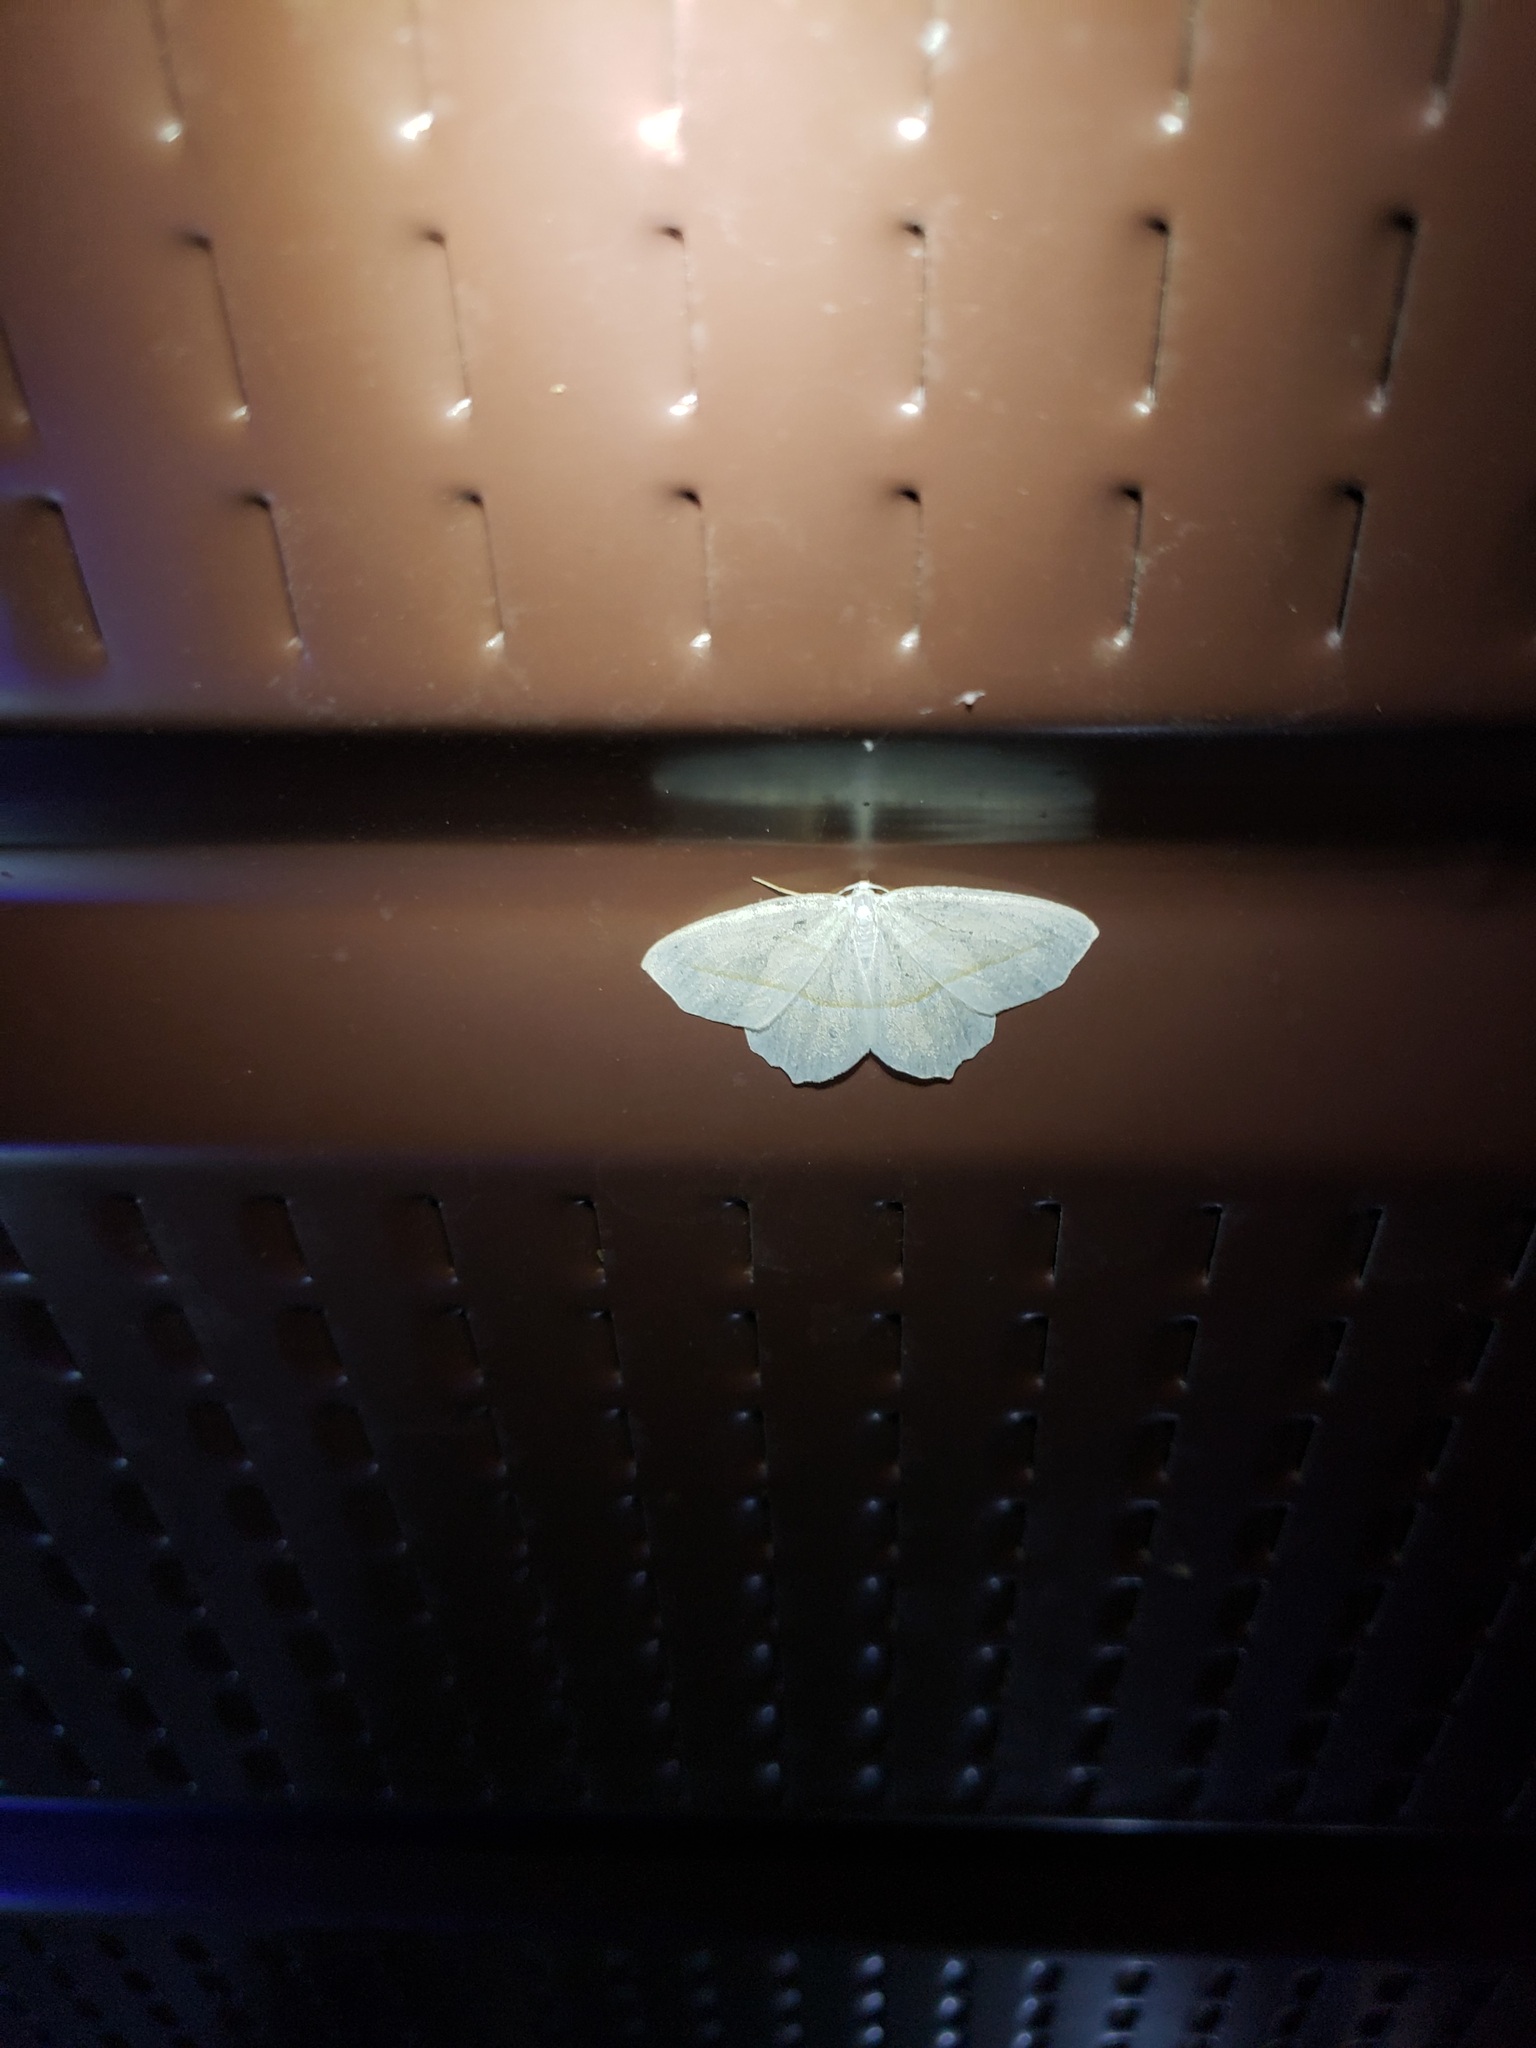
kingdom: Animalia
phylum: Arthropoda
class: Insecta
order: Lepidoptera
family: Geometridae
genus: Campaea
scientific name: Campaea perlata
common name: Fringed looper
